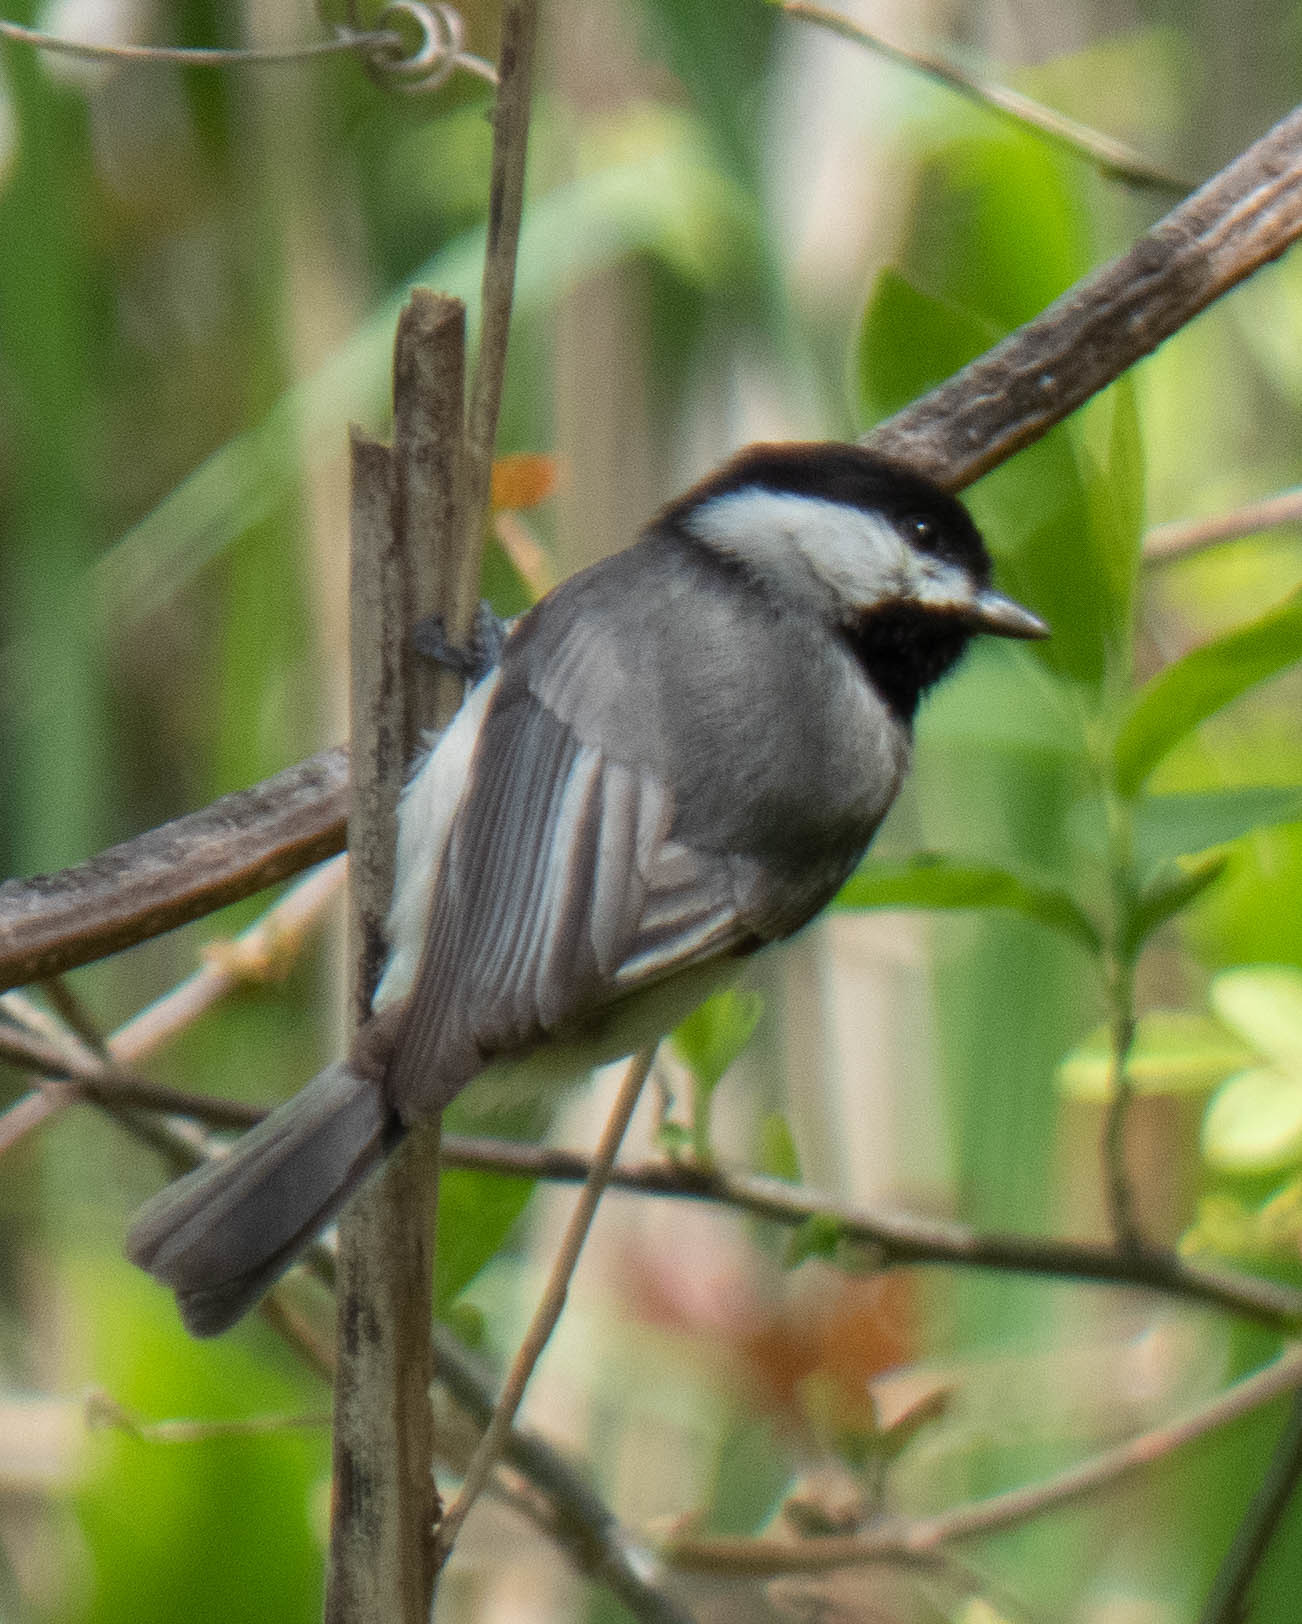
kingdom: Animalia
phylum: Chordata
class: Aves
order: Passeriformes
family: Paridae
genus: Poecile
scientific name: Poecile carolinensis
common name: Carolina chickadee
